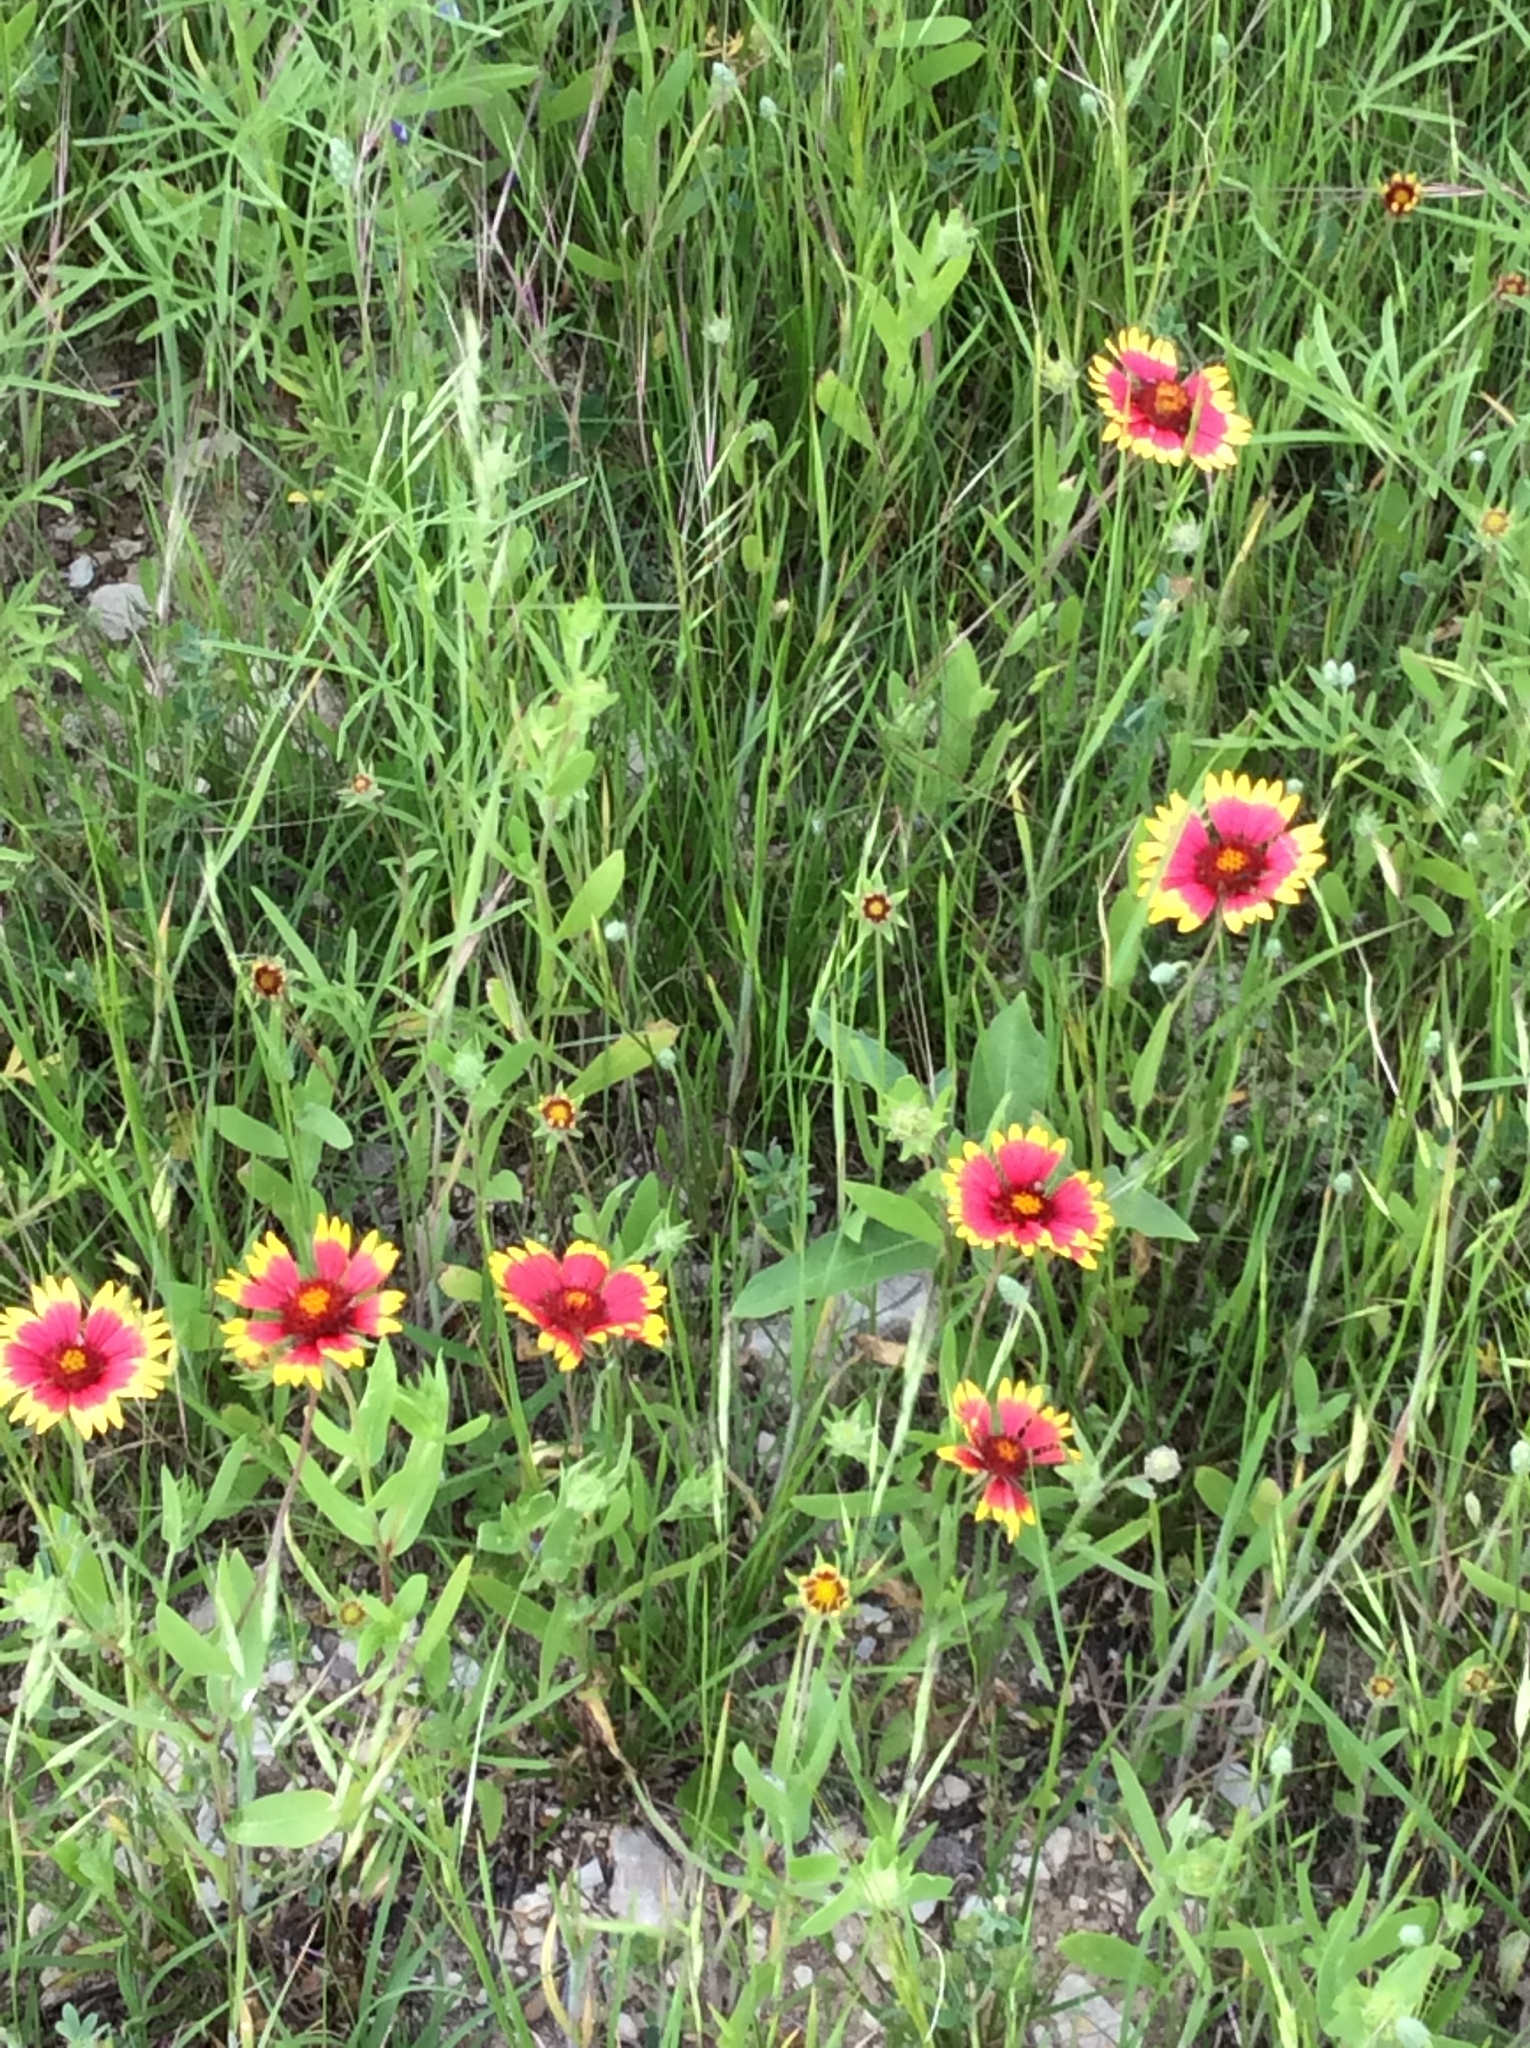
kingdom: Plantae
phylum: Tracheophyta
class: Magnoliopsida
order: Asterales
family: Asteraceae
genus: Gaillardia
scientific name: Gaillardia pulchella
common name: Firewheel
